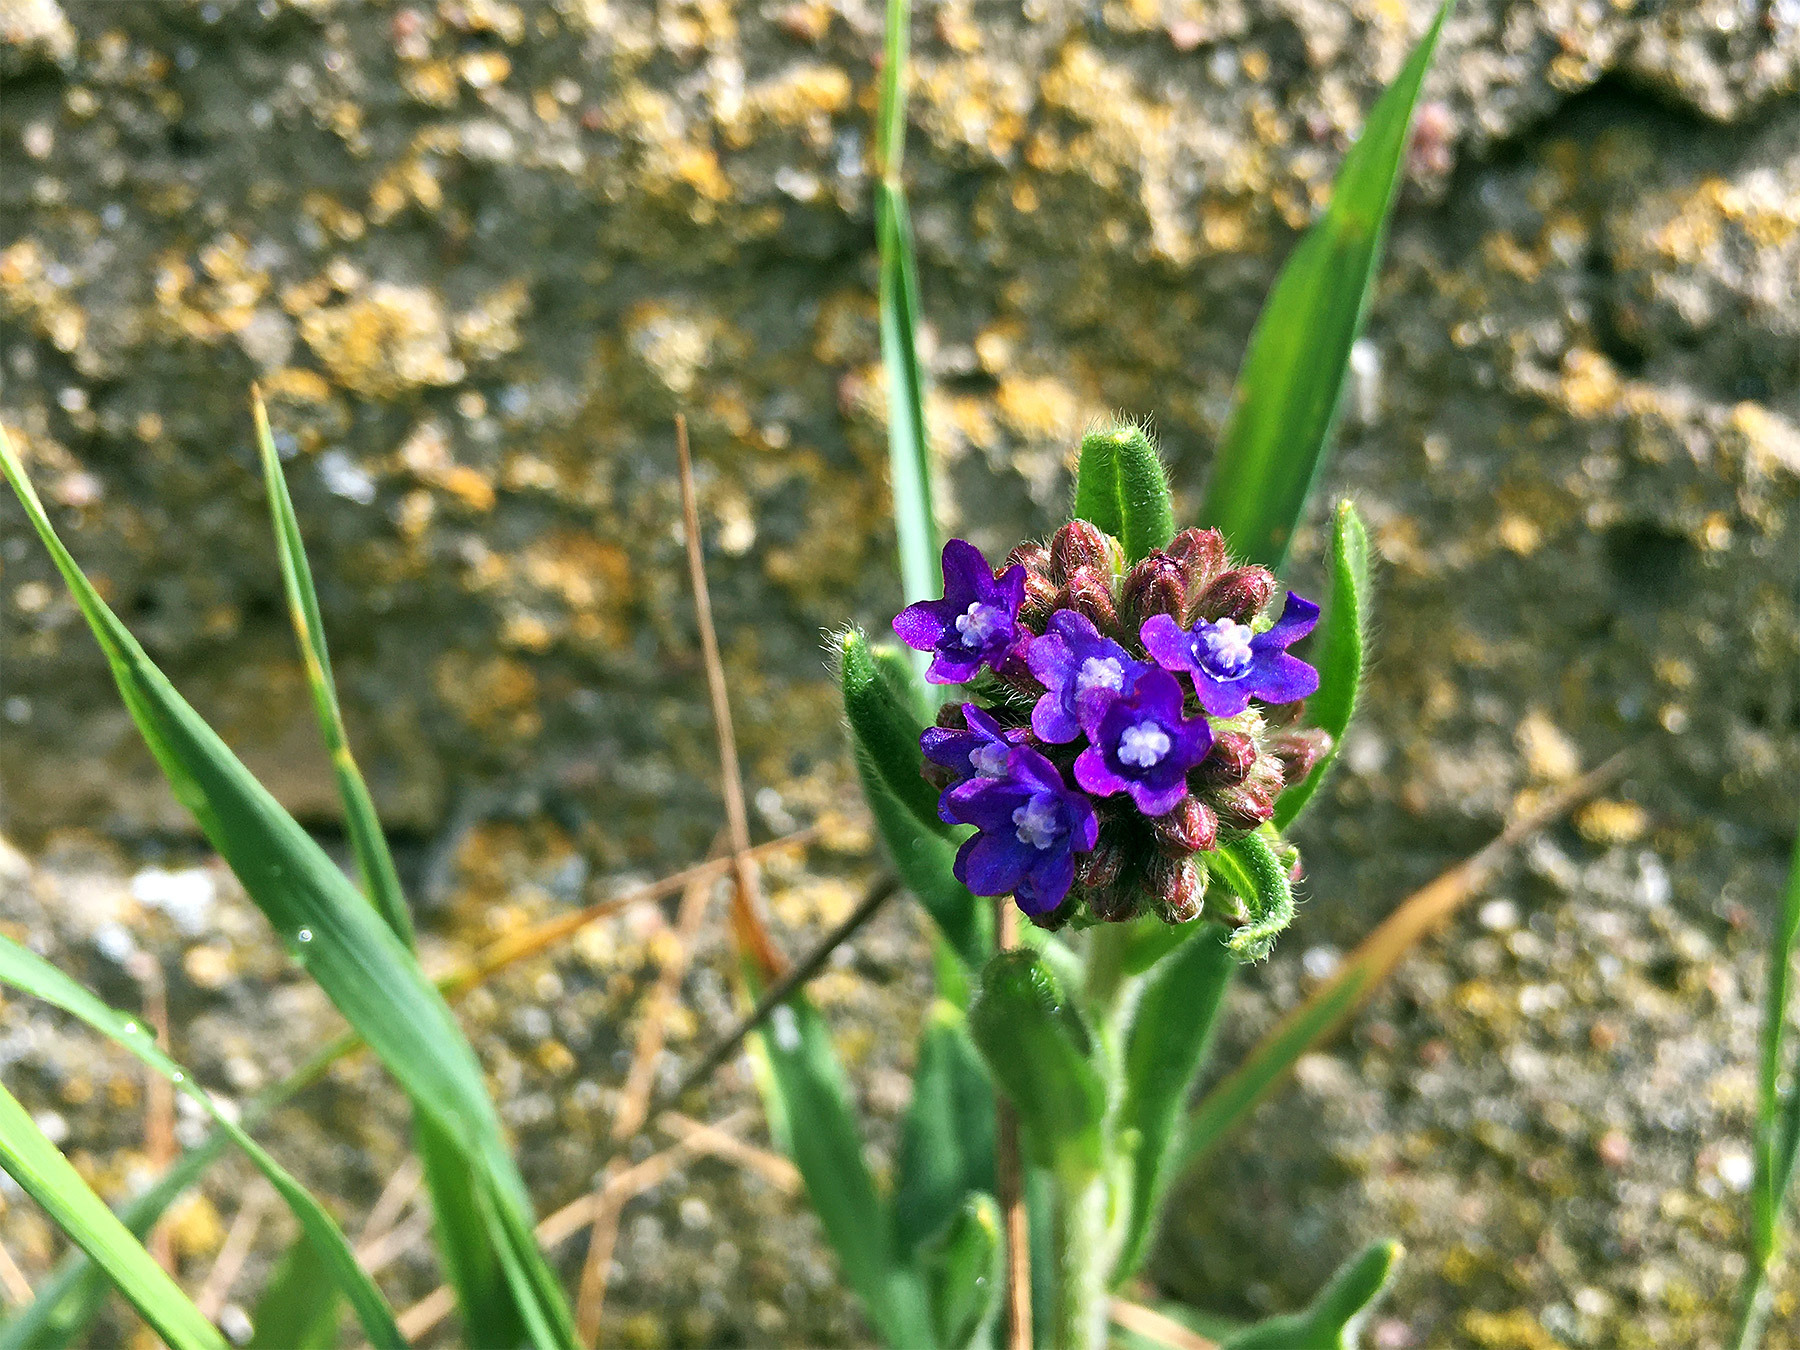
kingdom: Plantae
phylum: Tracheophyta
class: Magnoliopsida
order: Boraginales
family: Boraginaceae
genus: Anchusa
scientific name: Anchusa officinalis
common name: Alkanet
